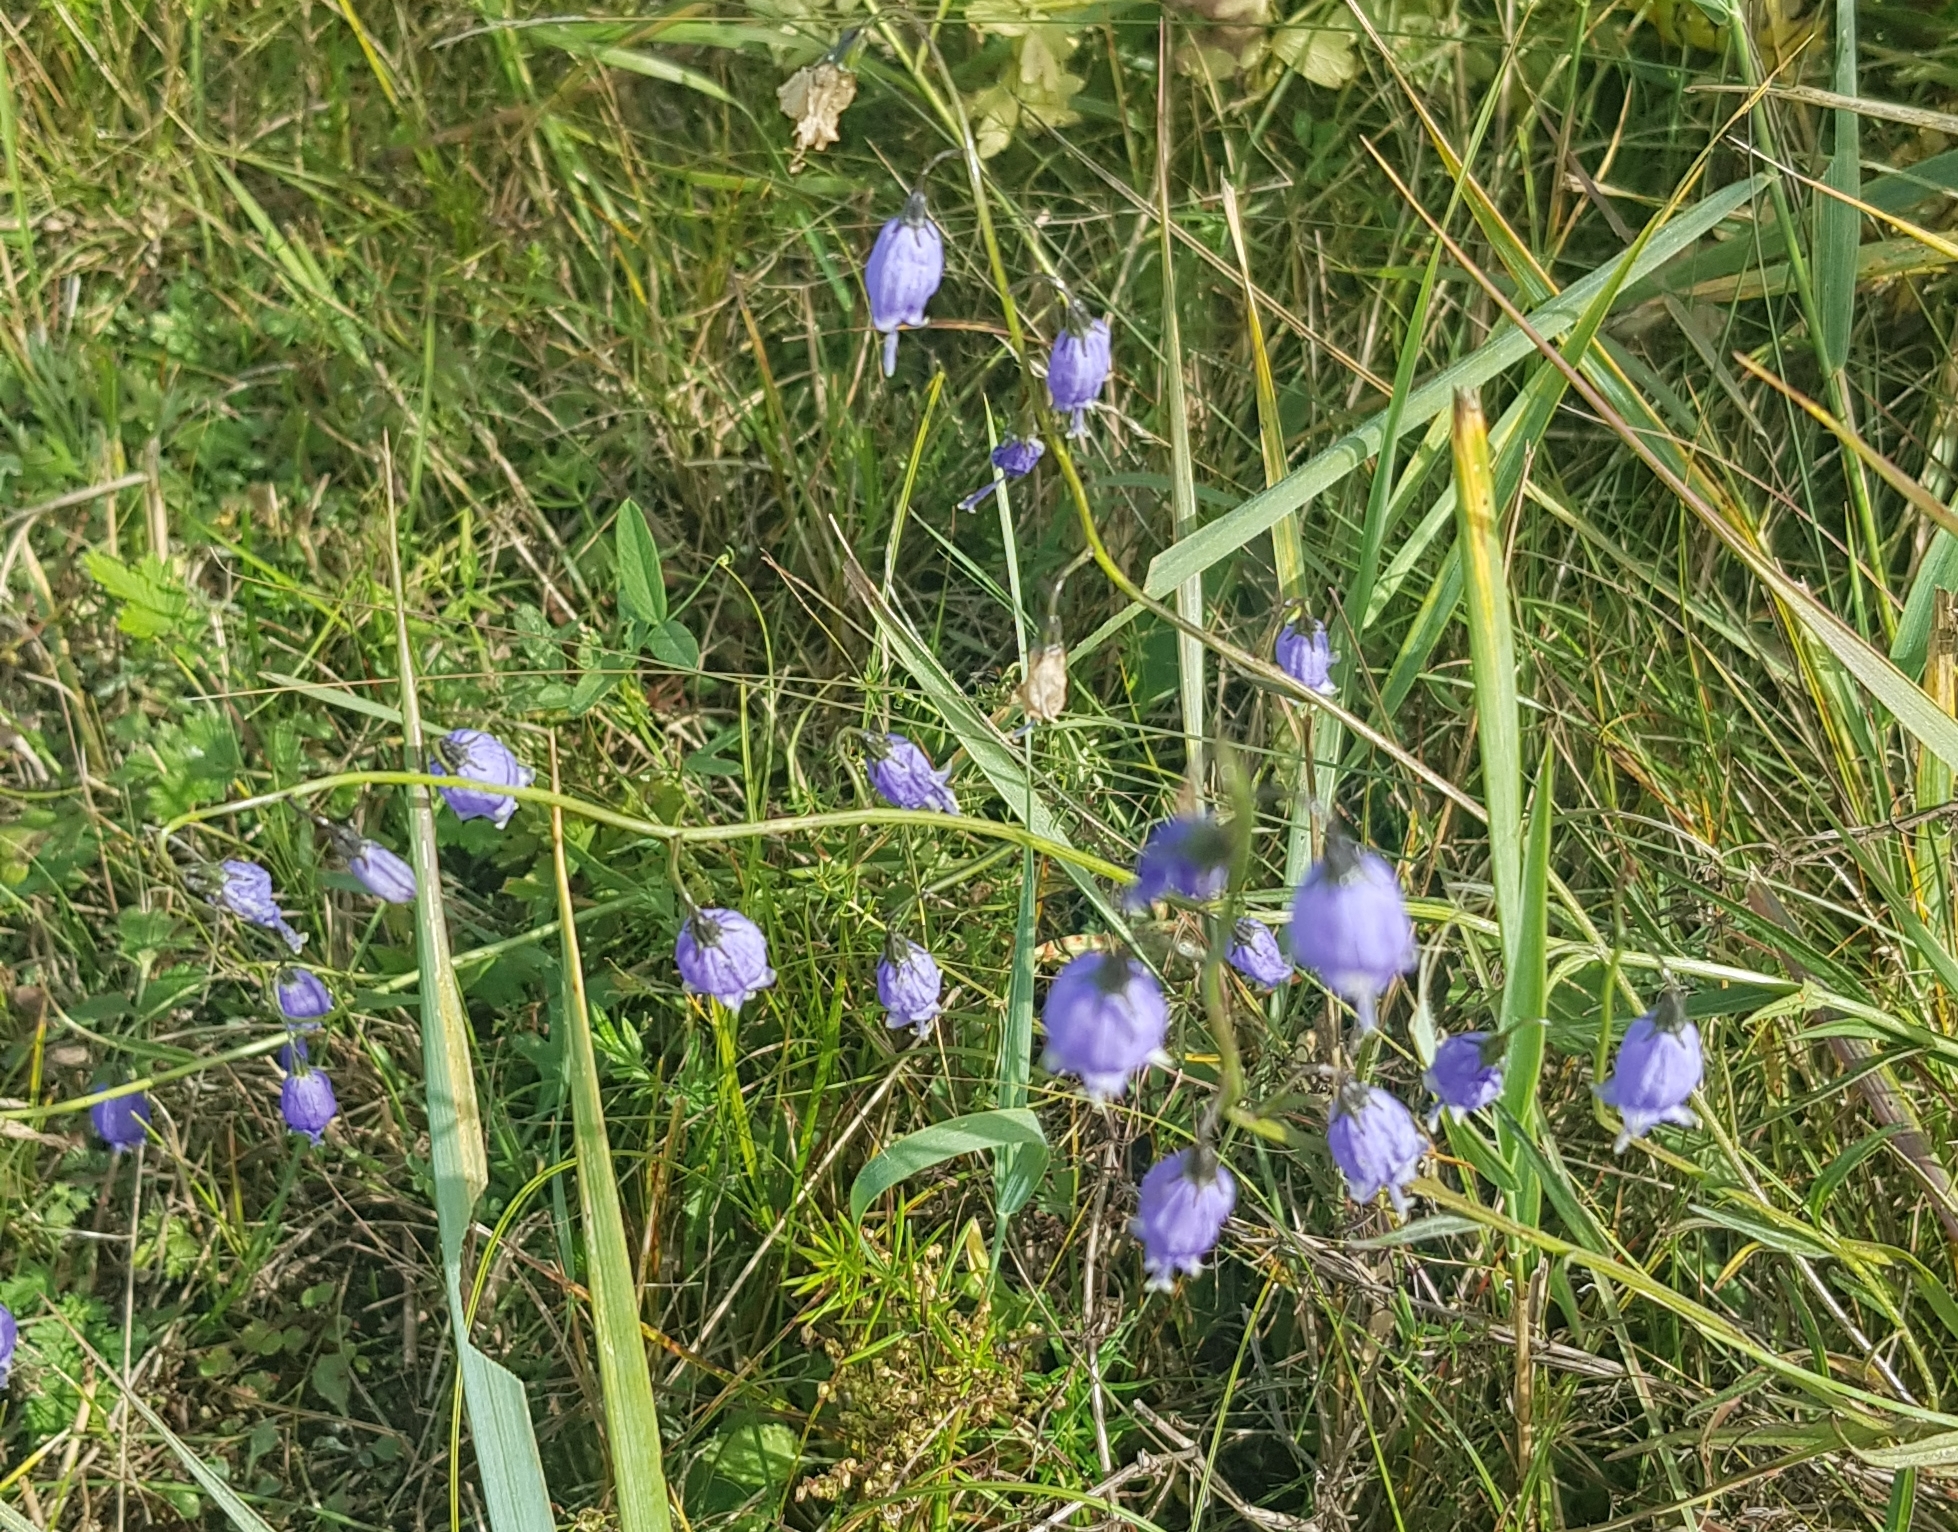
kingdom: Plantae
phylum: Tracheophyta
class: Magnoliopsida
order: Asterales
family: Campanulaceae
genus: Adenophora
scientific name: Adenophora stenanthina
